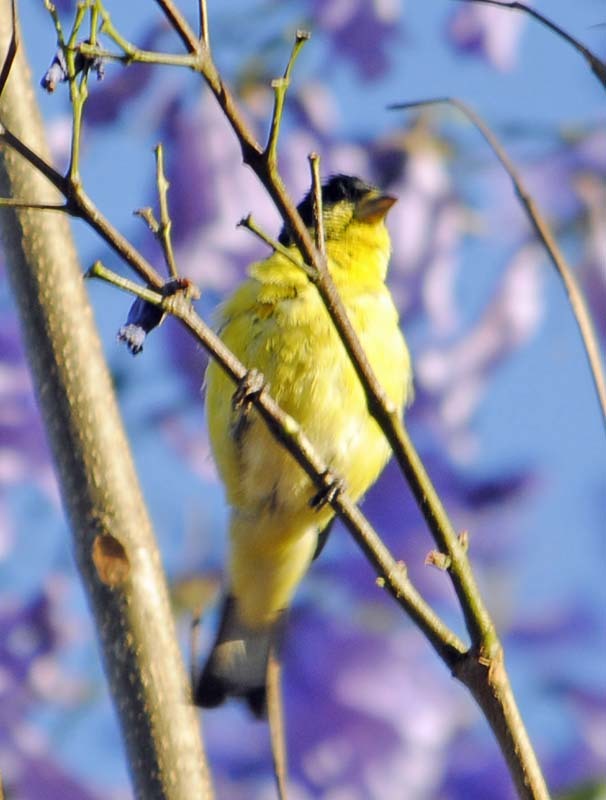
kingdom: Animalia
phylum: Chordata
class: Aves
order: Passeriformes
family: Fringillidae
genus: Spinus
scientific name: Spinus psaltria
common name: Lesser goldfinch
